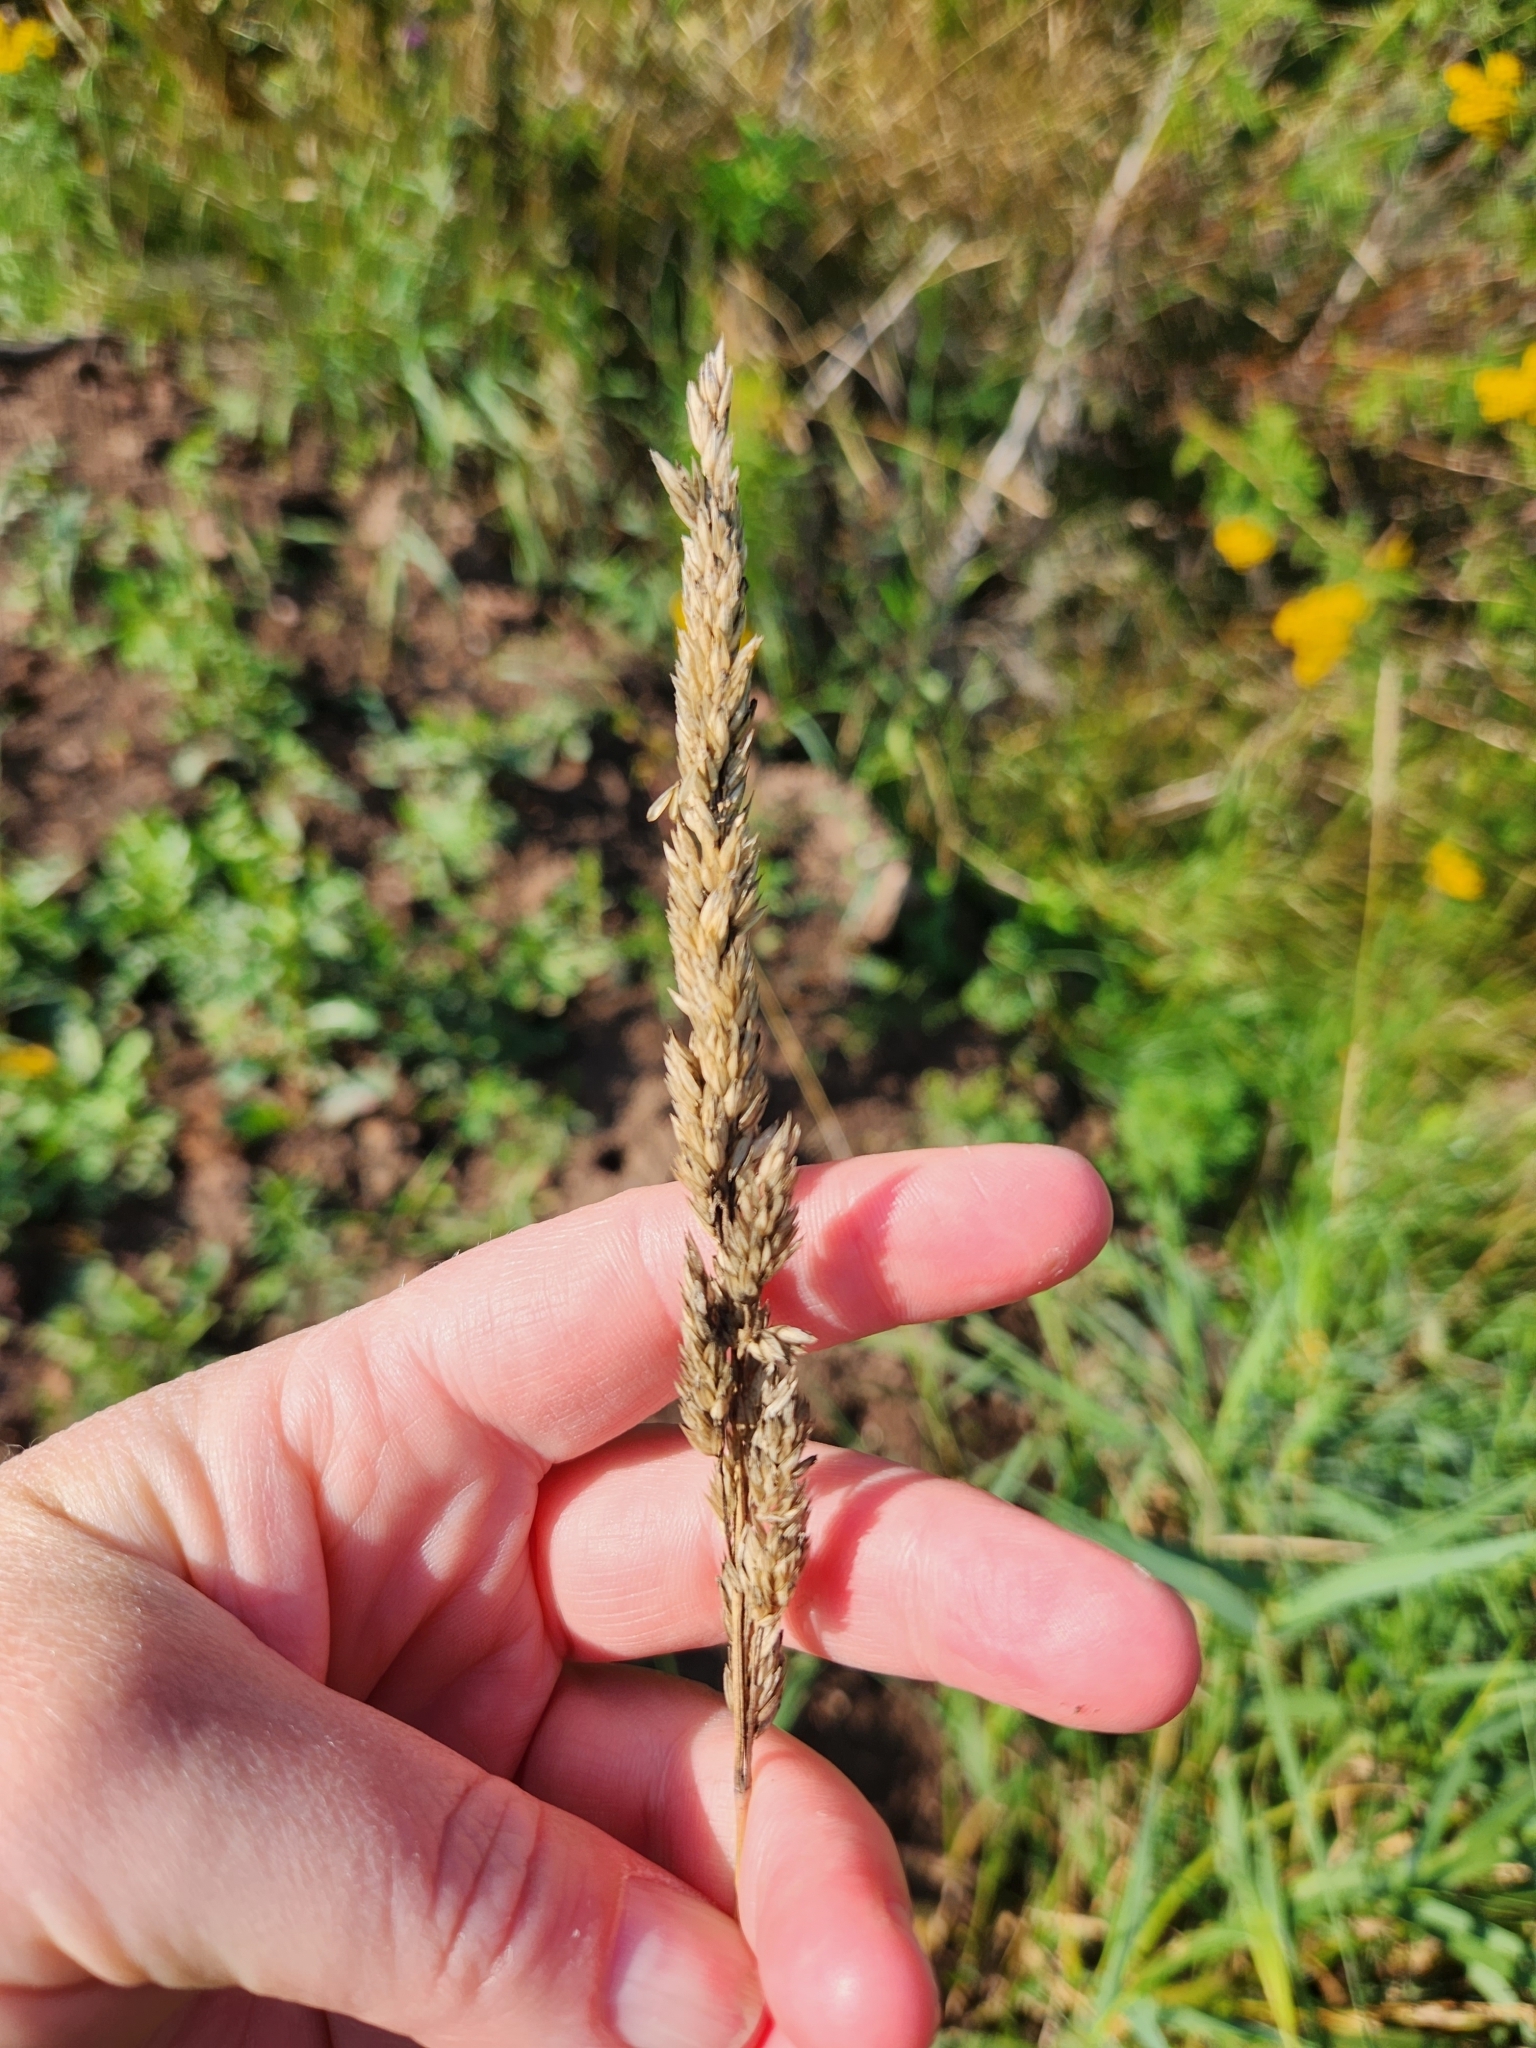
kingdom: Plantae
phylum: Tracheophyta
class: Liliopsida
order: Poales
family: Poaceae
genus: Phalaris
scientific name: Phalaris arundinacea
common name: Reed canary-grass
